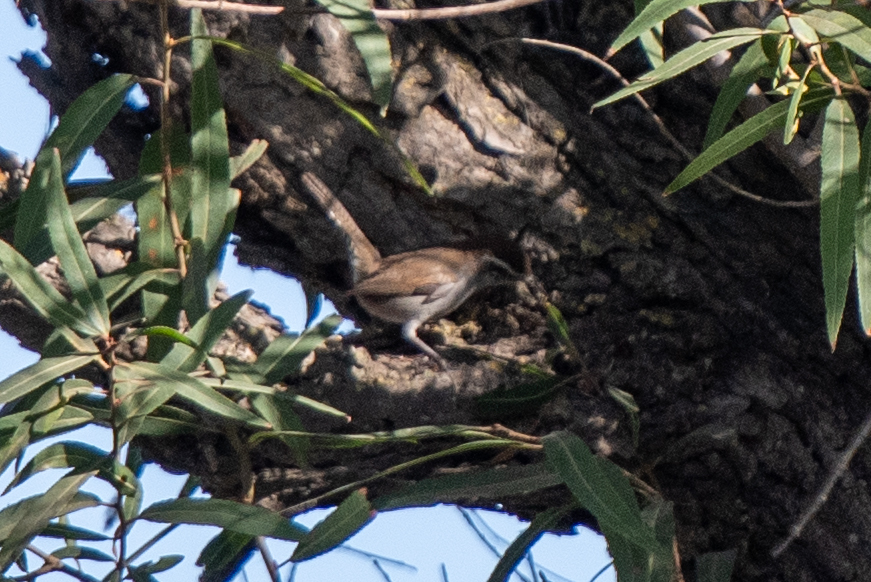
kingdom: Animalia
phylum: Chordata
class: Aves
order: Passeriformes
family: Troglodytidae
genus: Thryomanes
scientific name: Thryomanes bewickii
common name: Bewick's wren
